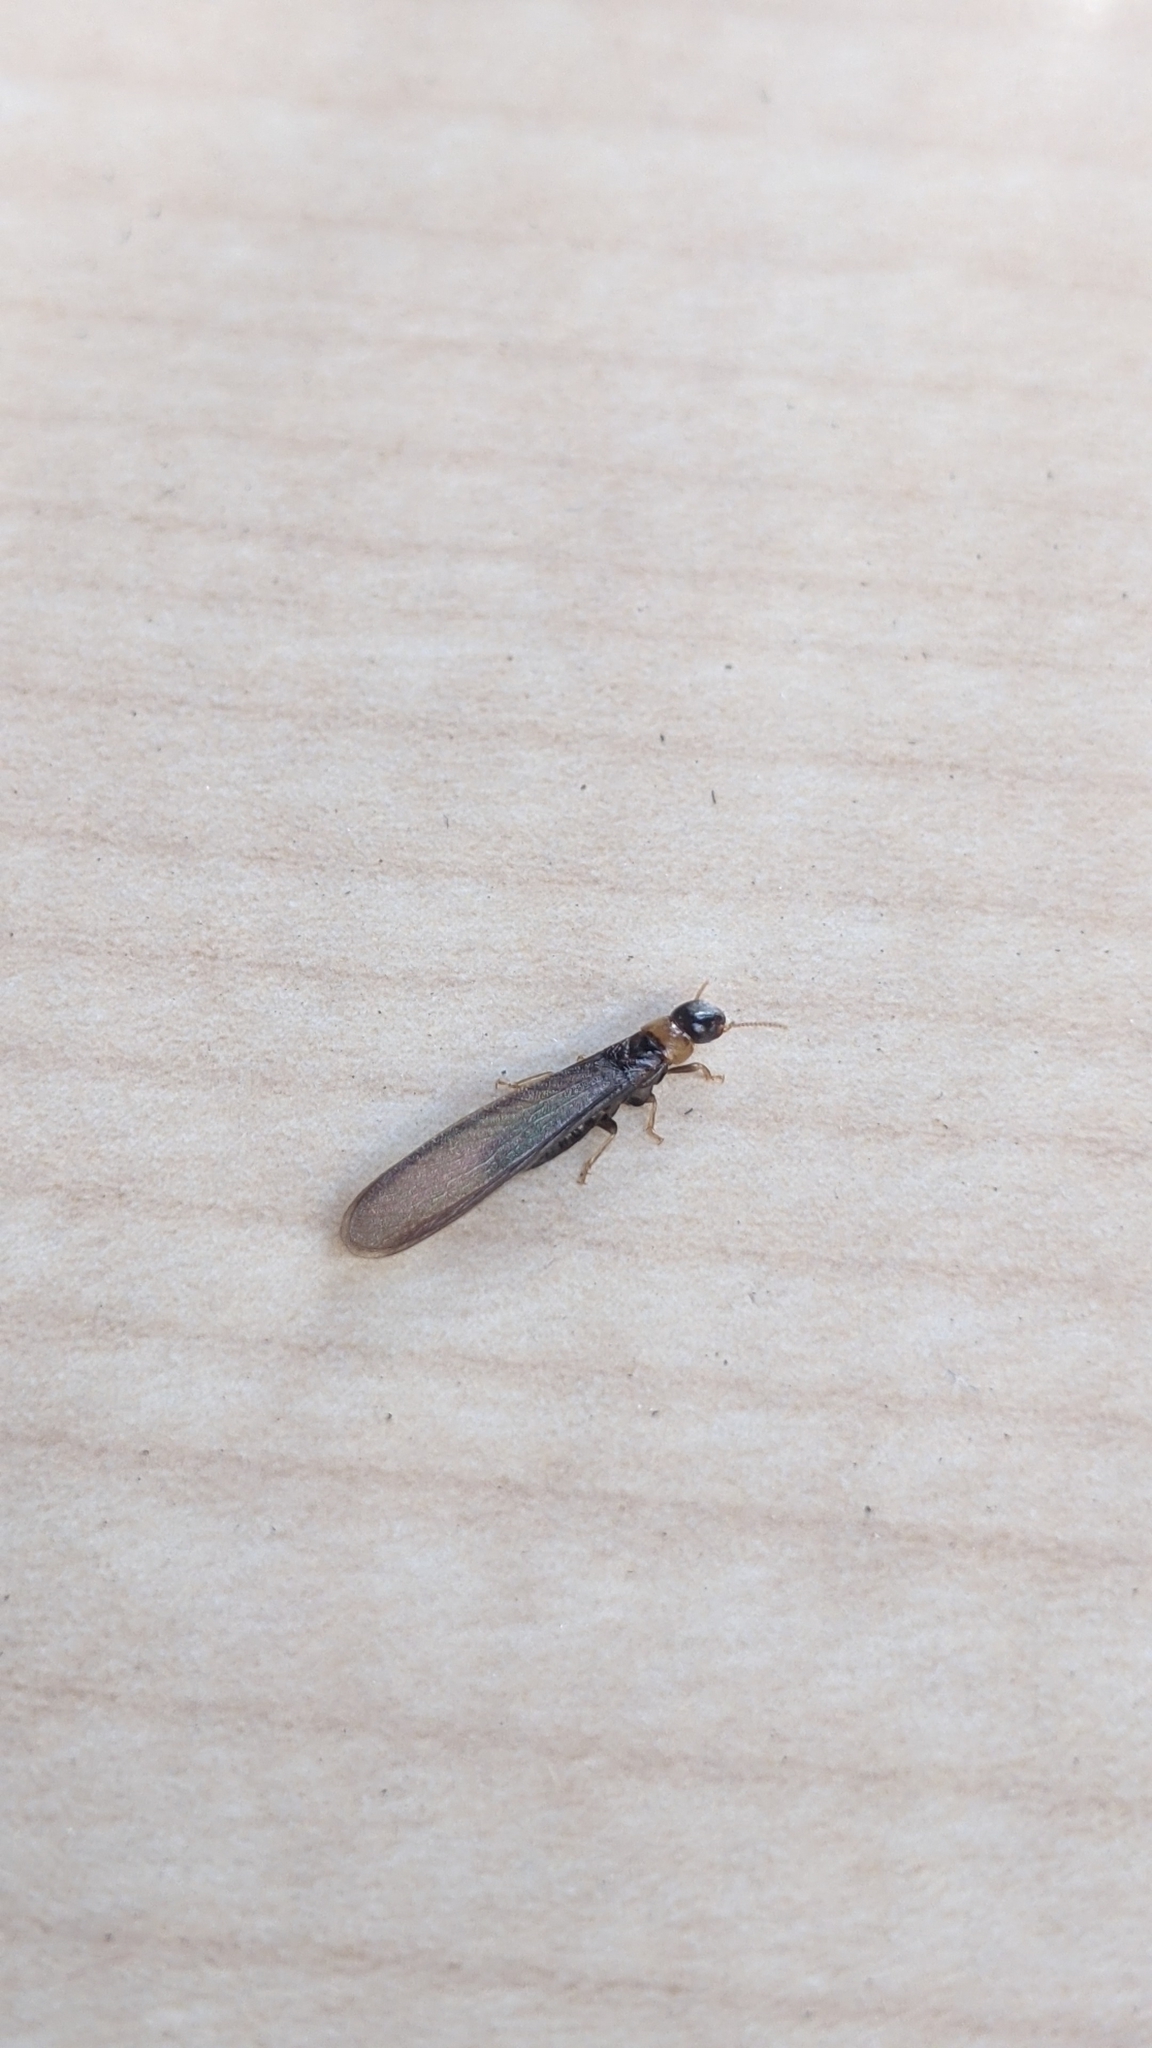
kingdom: Animalia
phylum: Arthropoda
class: Insecta
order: Blattodea
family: Kalotermitidae
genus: Kalotermes
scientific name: Kalotermes flavicollis
